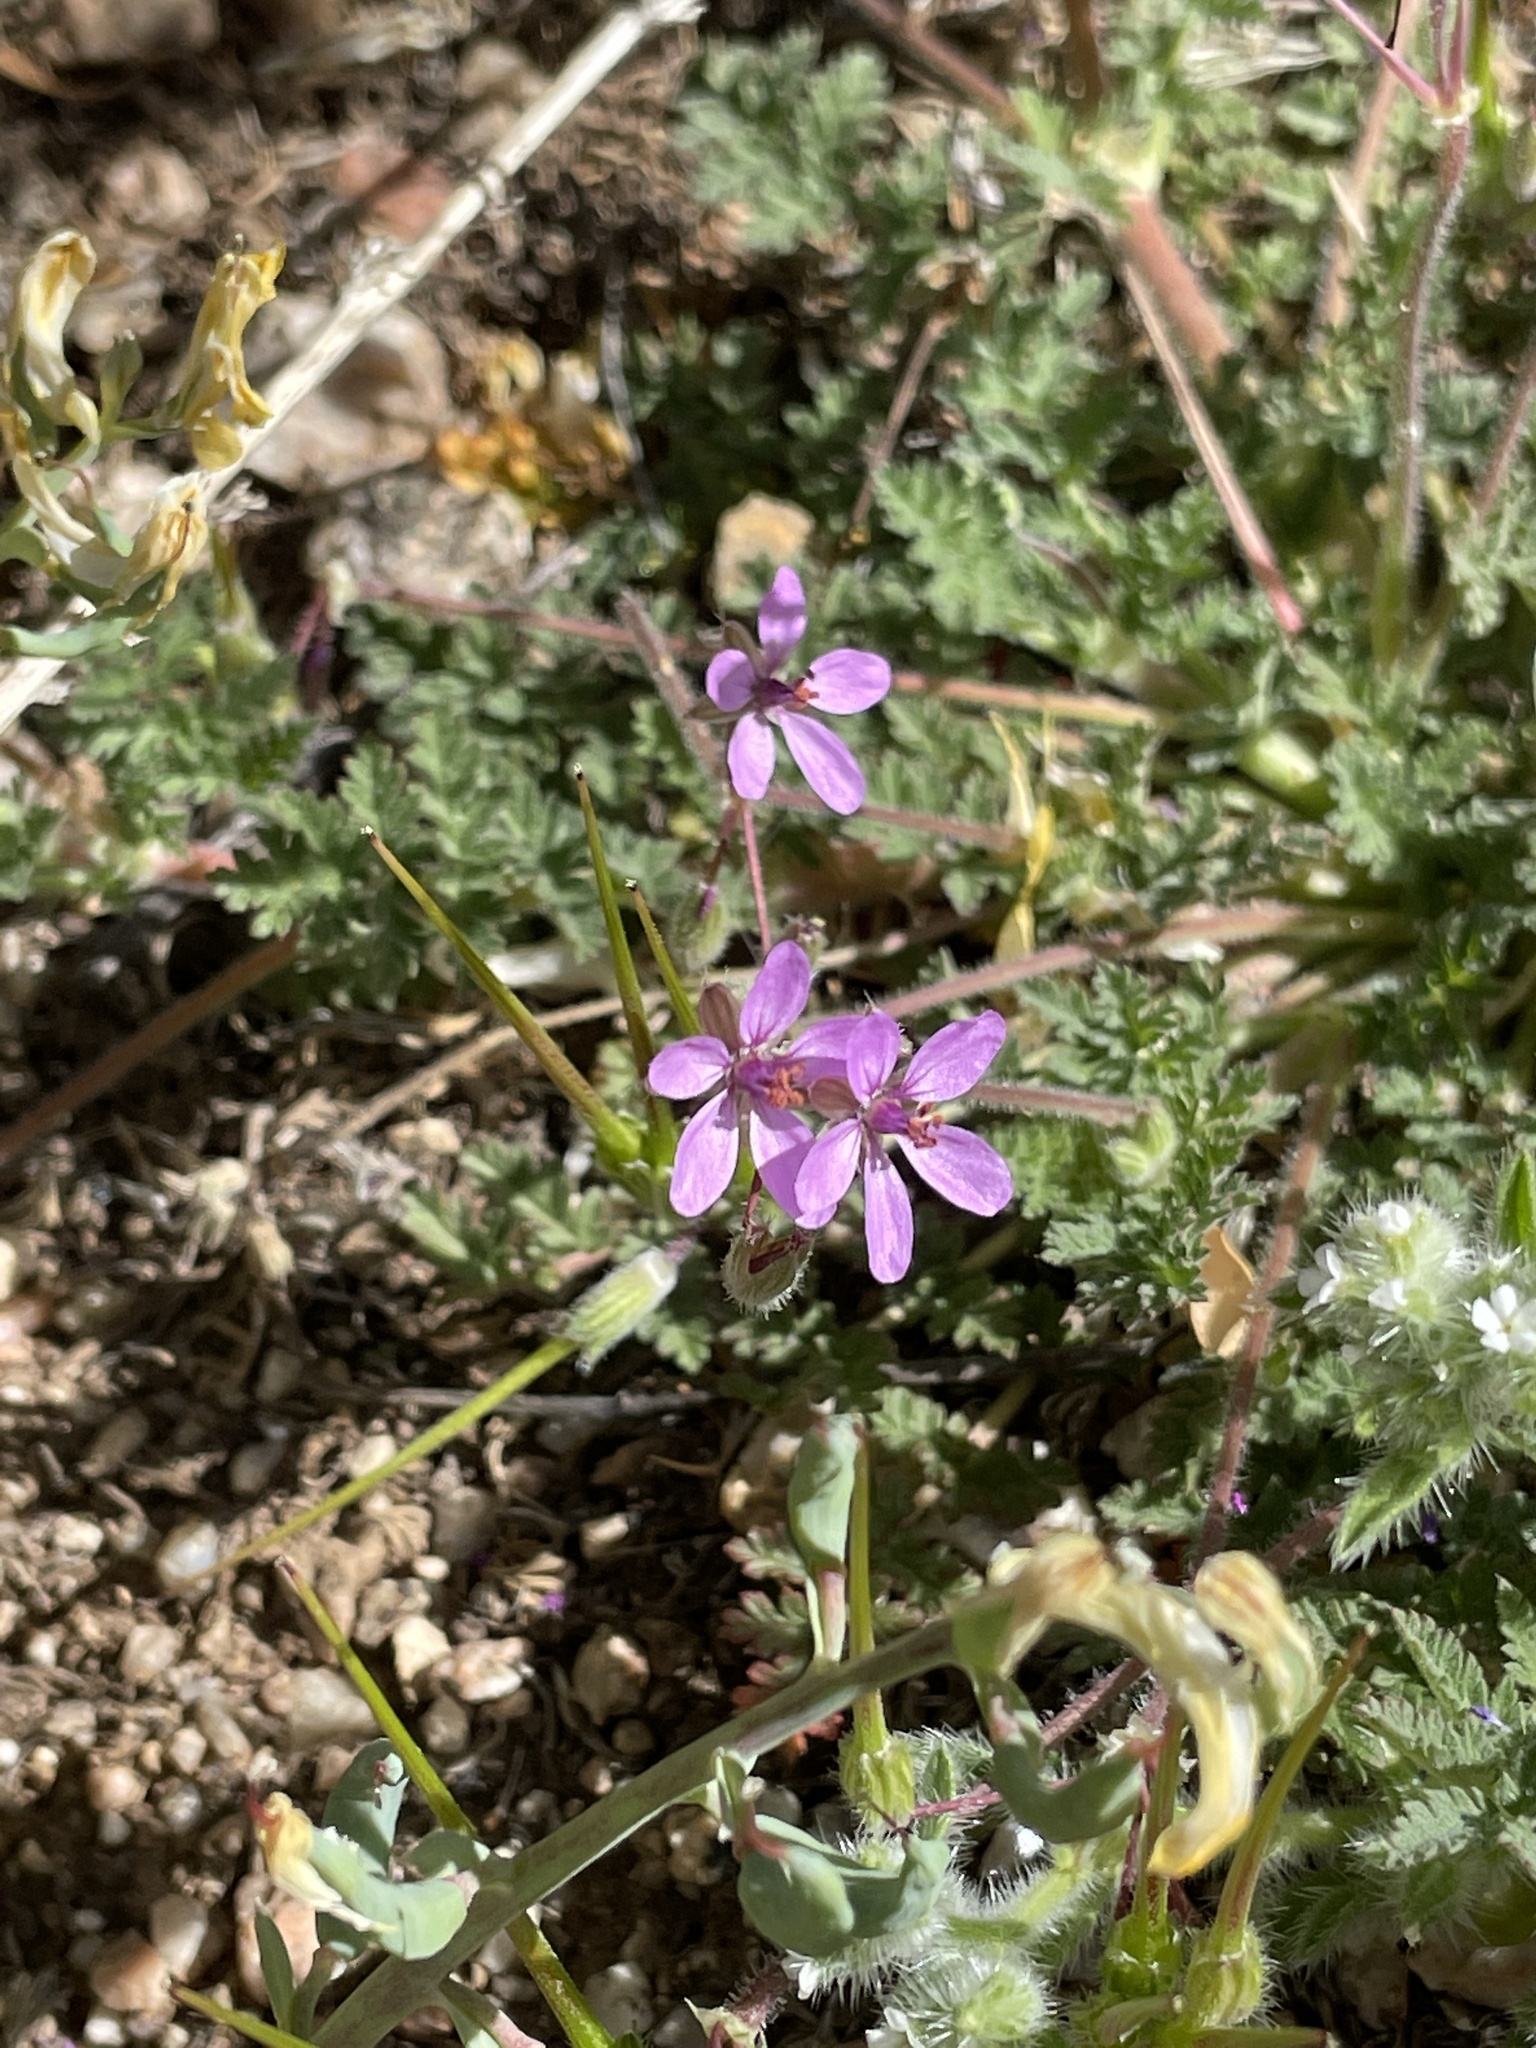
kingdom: Plantae
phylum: Tracheophyta
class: Magnoliopsida
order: Geraniales
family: Geraniaceae
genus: Erodium
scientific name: Erodium cicutarium
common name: Common stork's-bill
